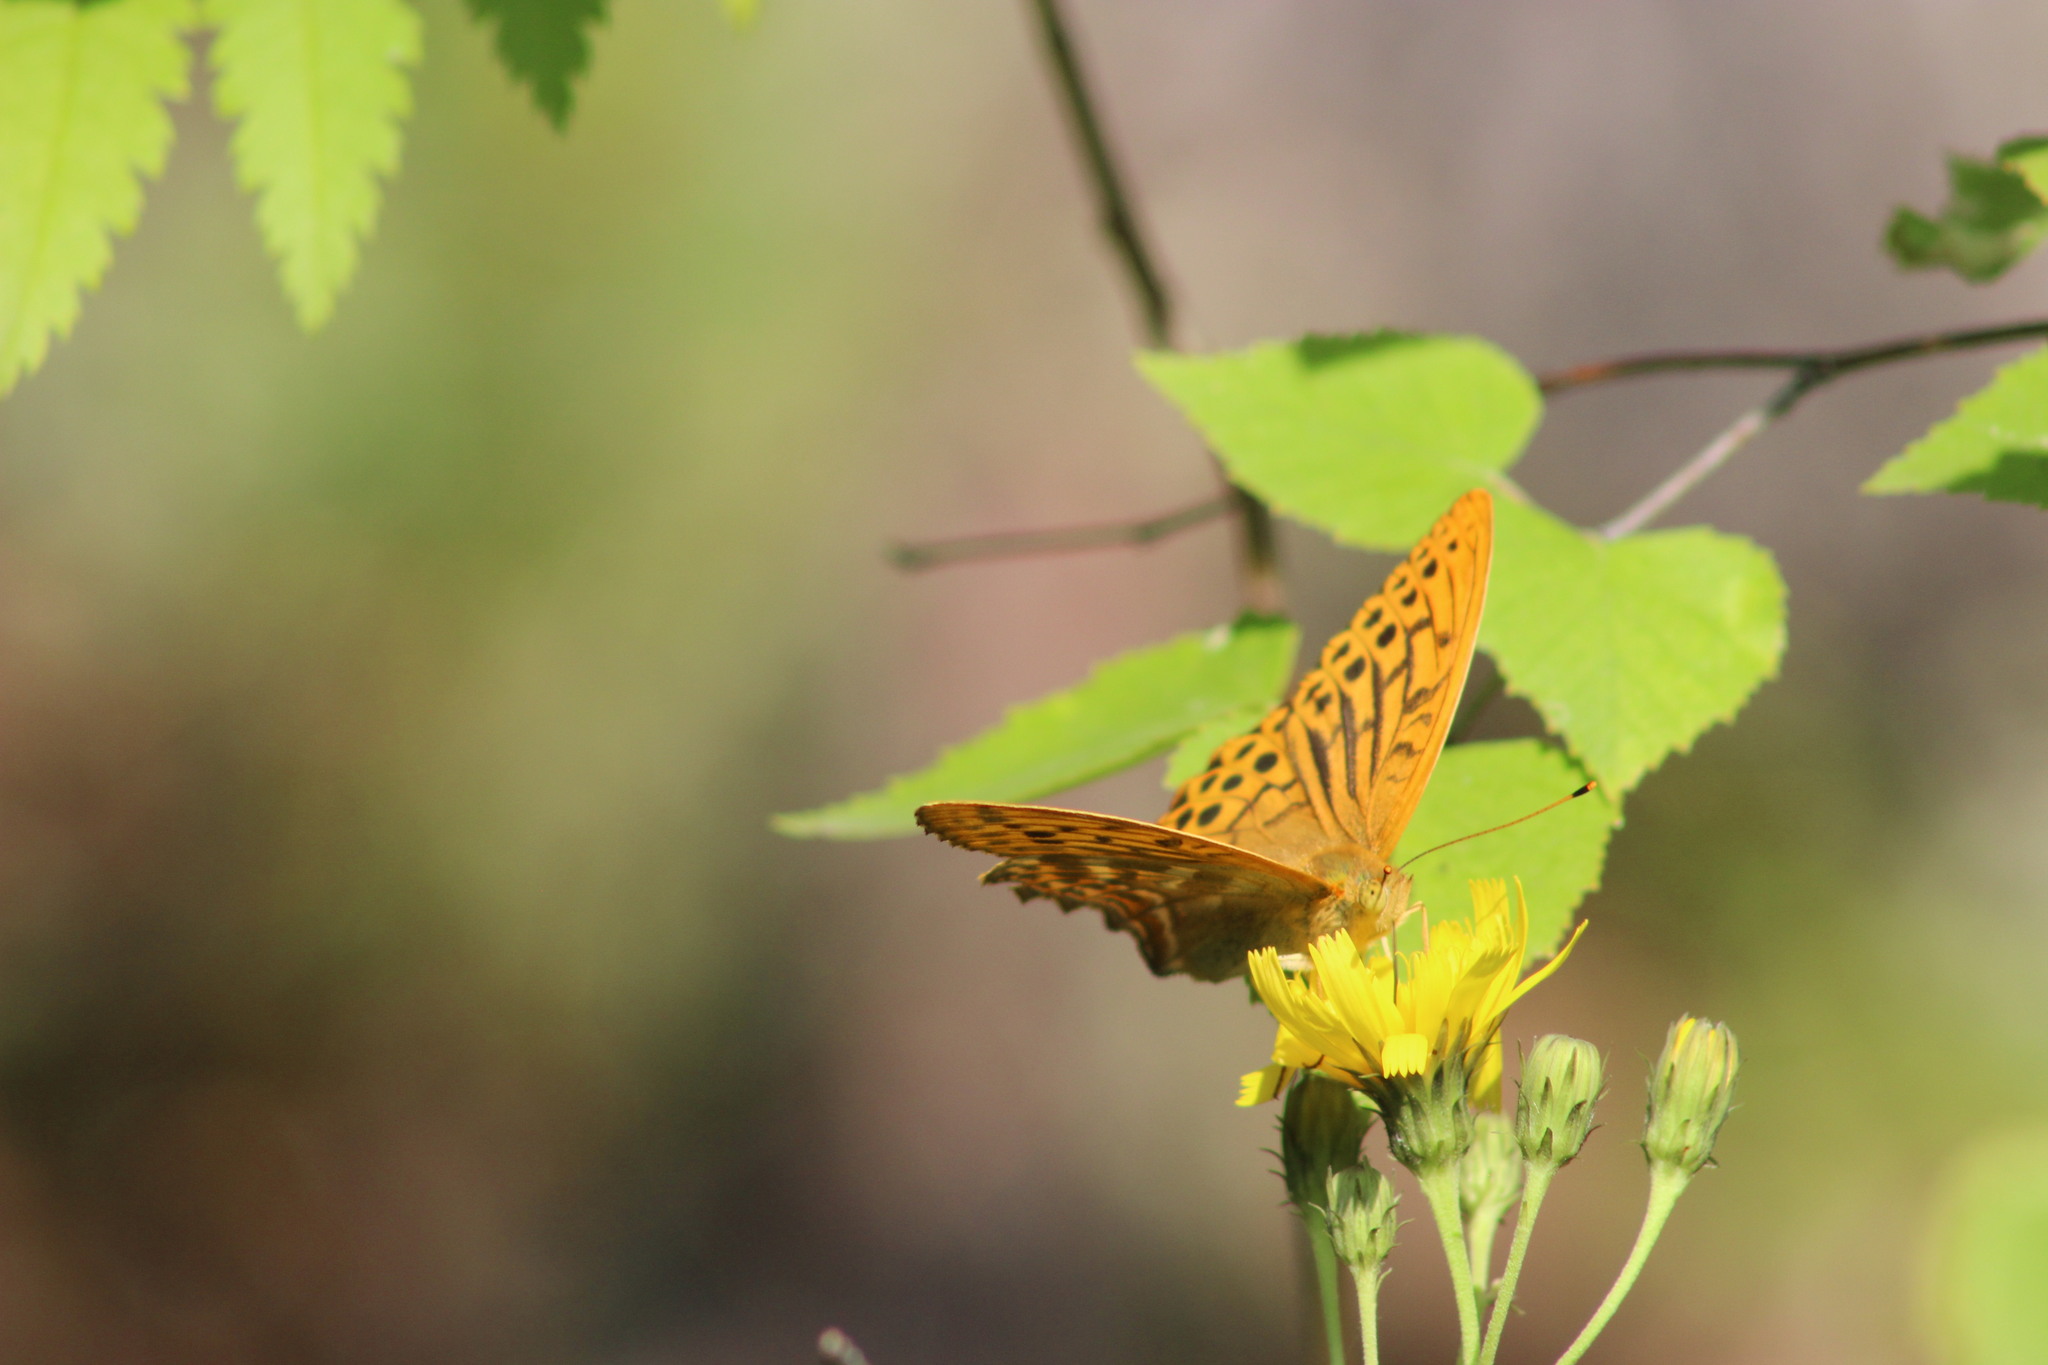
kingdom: Animalia
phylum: Arthropoda
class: Insecta
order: Lepidoptera
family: Nymphalidae
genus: Argynnis
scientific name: Argynnis paphia
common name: Silver-washed fritillary
